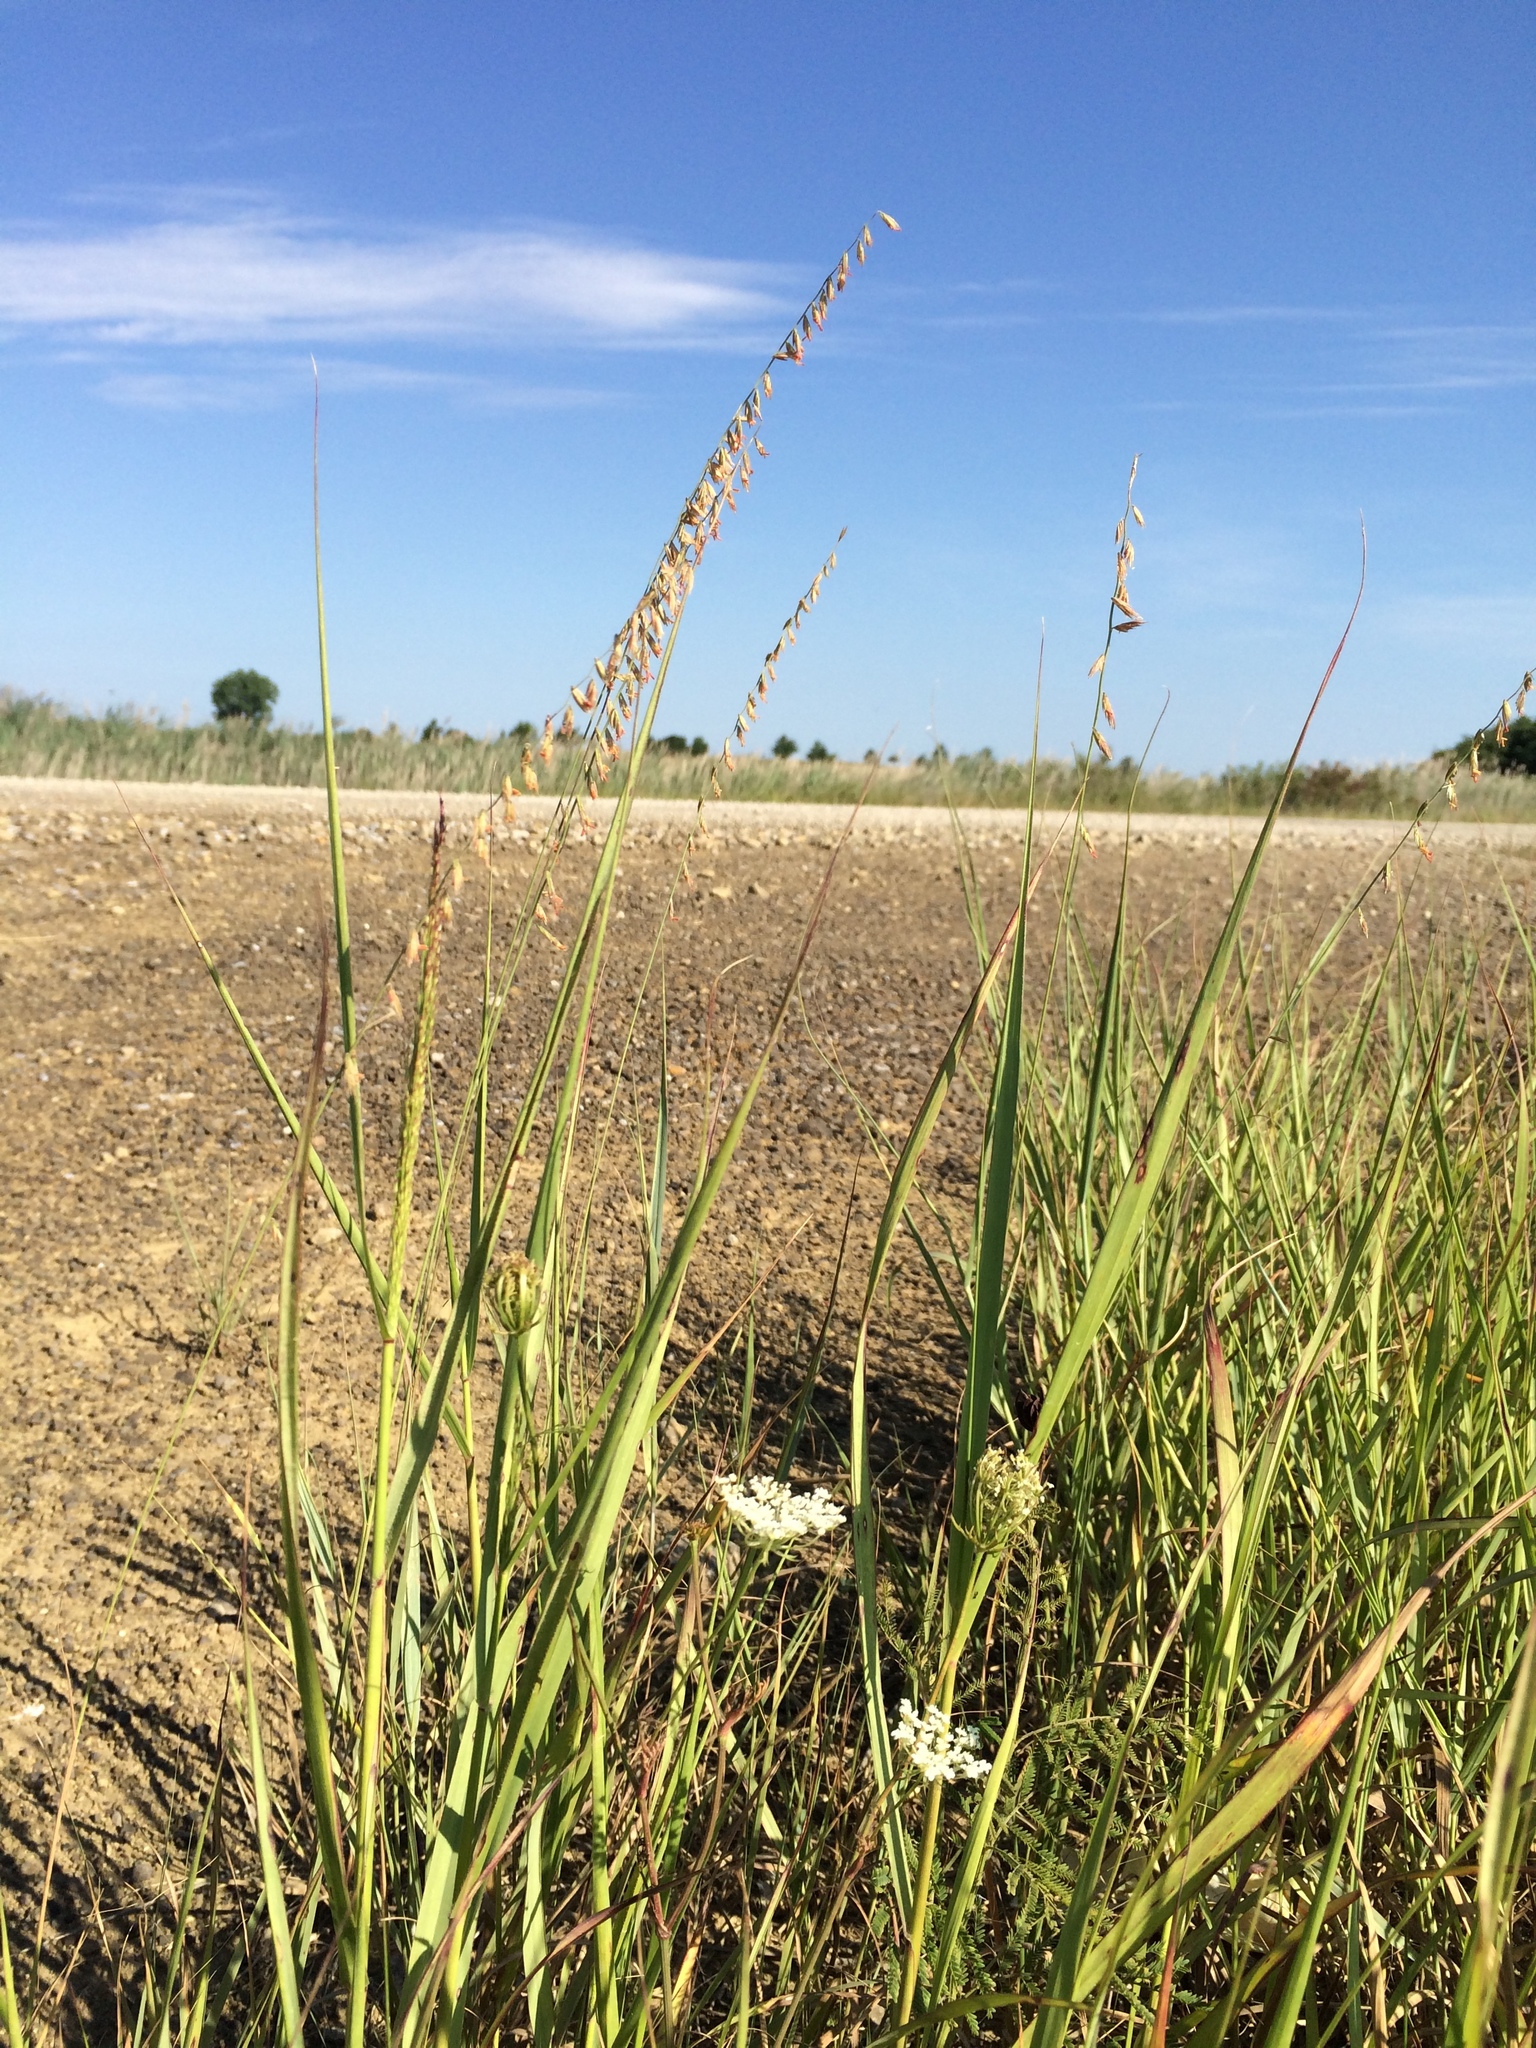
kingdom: Plantae
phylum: Tracheophyta
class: Liliopsida
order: Poales
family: Poaceae
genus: Bouteloua
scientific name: Bouteloua curtipendula
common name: Side-oats grama
